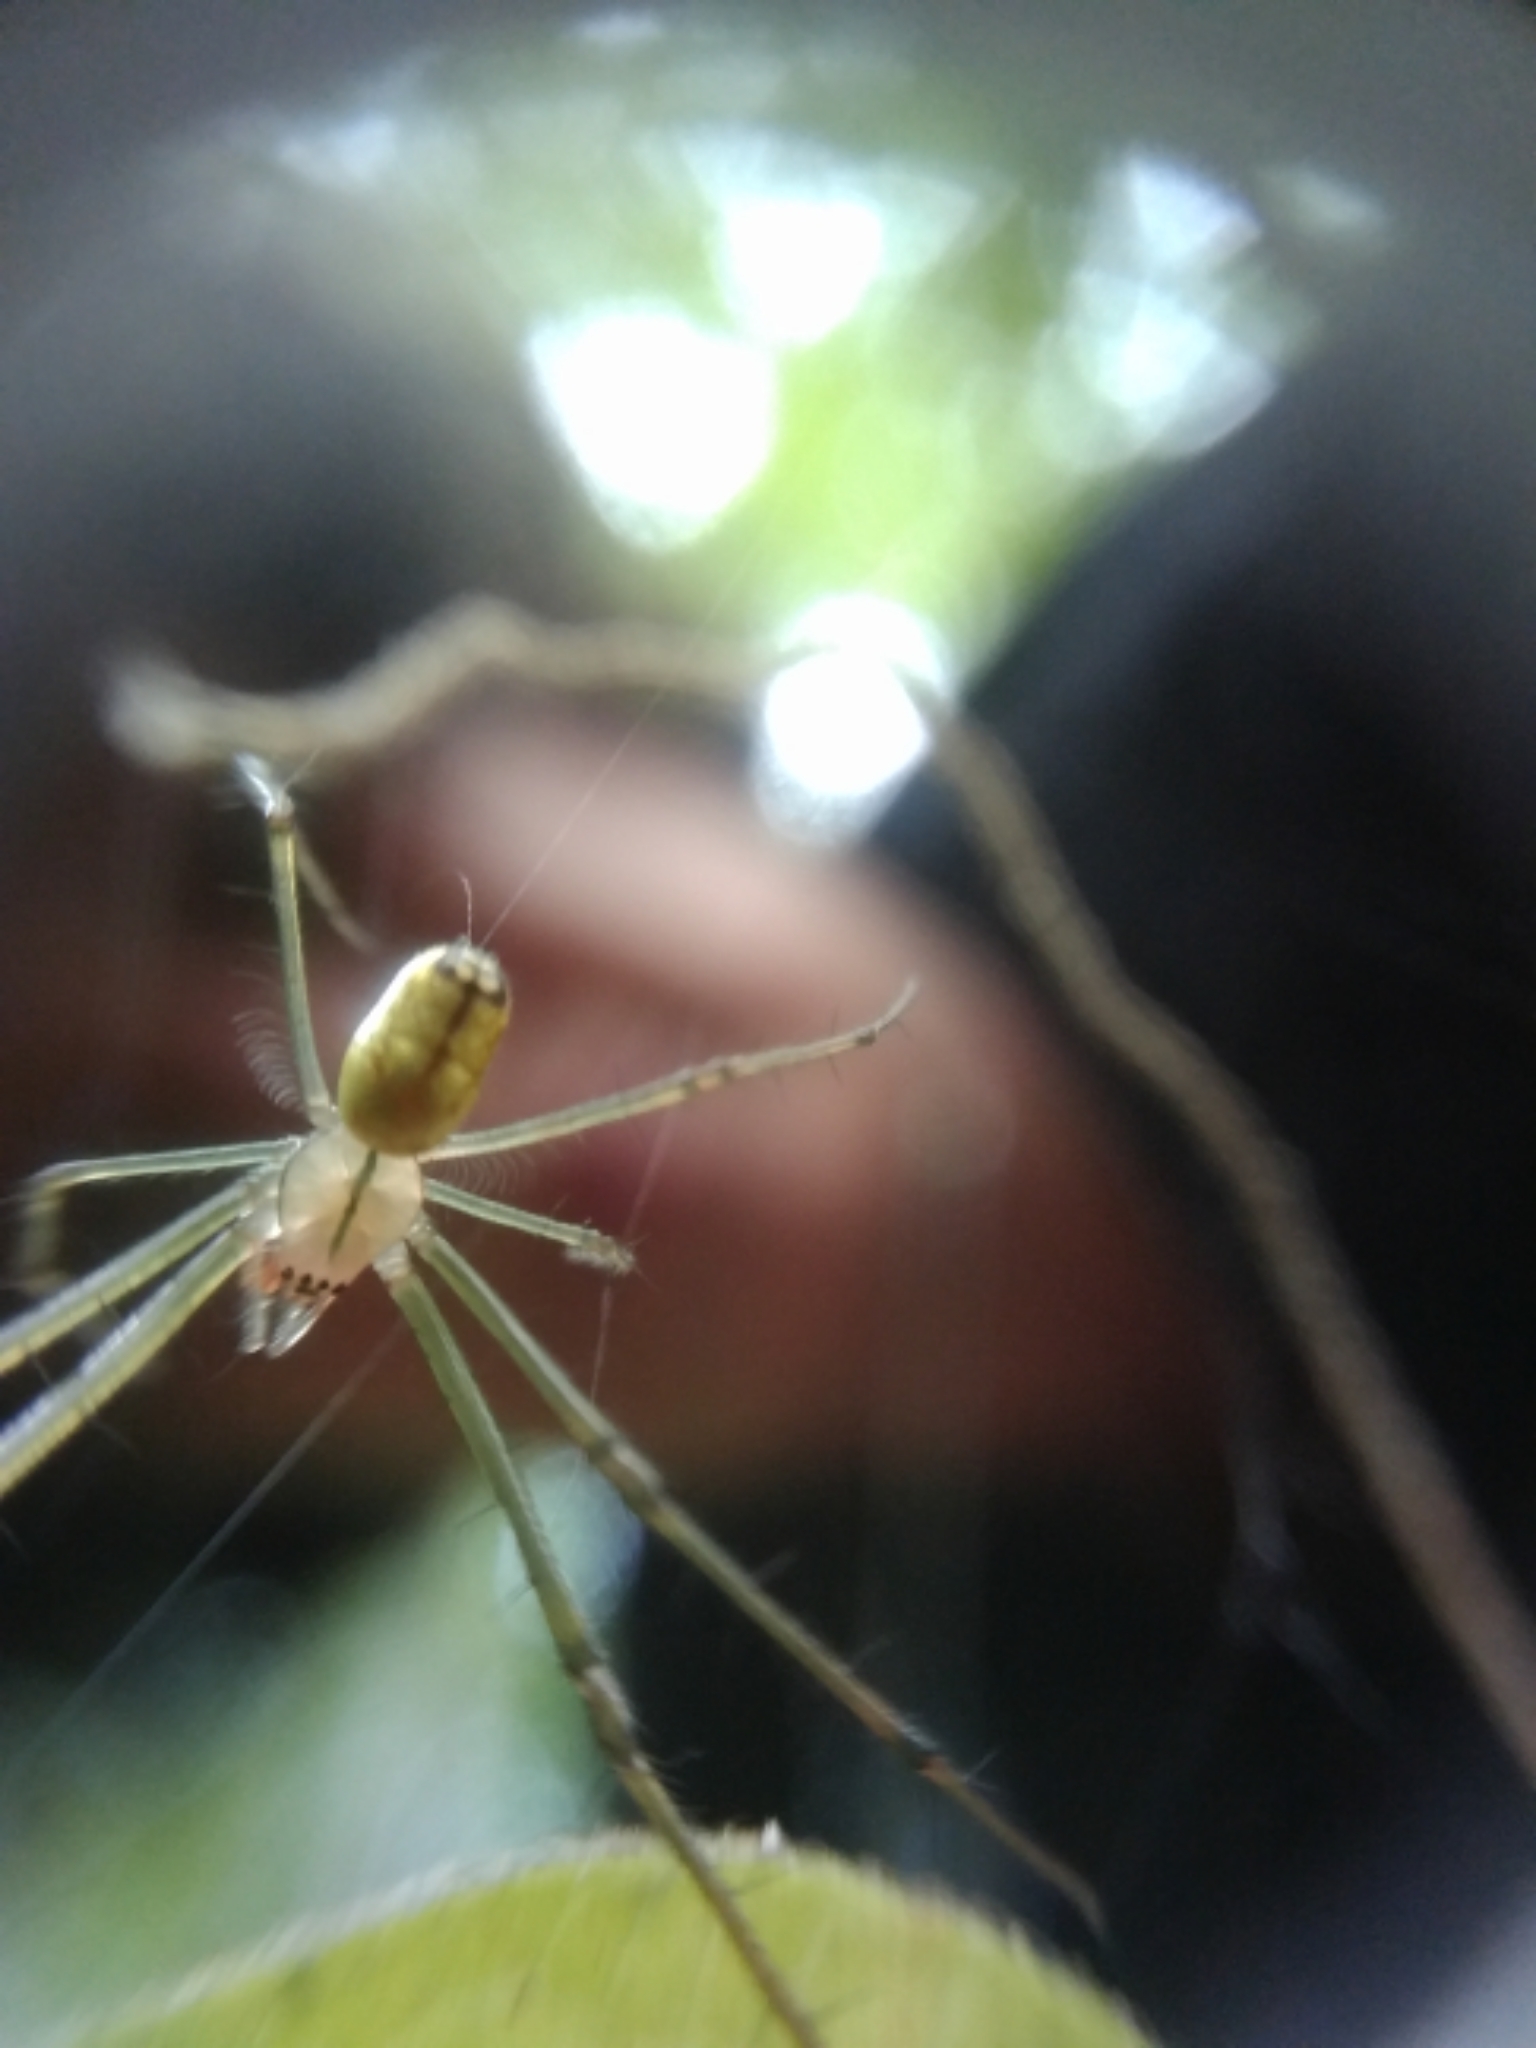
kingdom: Animalia
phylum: Arthropoda
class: Arachnida
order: Araneae
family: Tetragnathidae
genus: Leucauge
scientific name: Leucauge venusta
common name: Longjawed orb weavers
